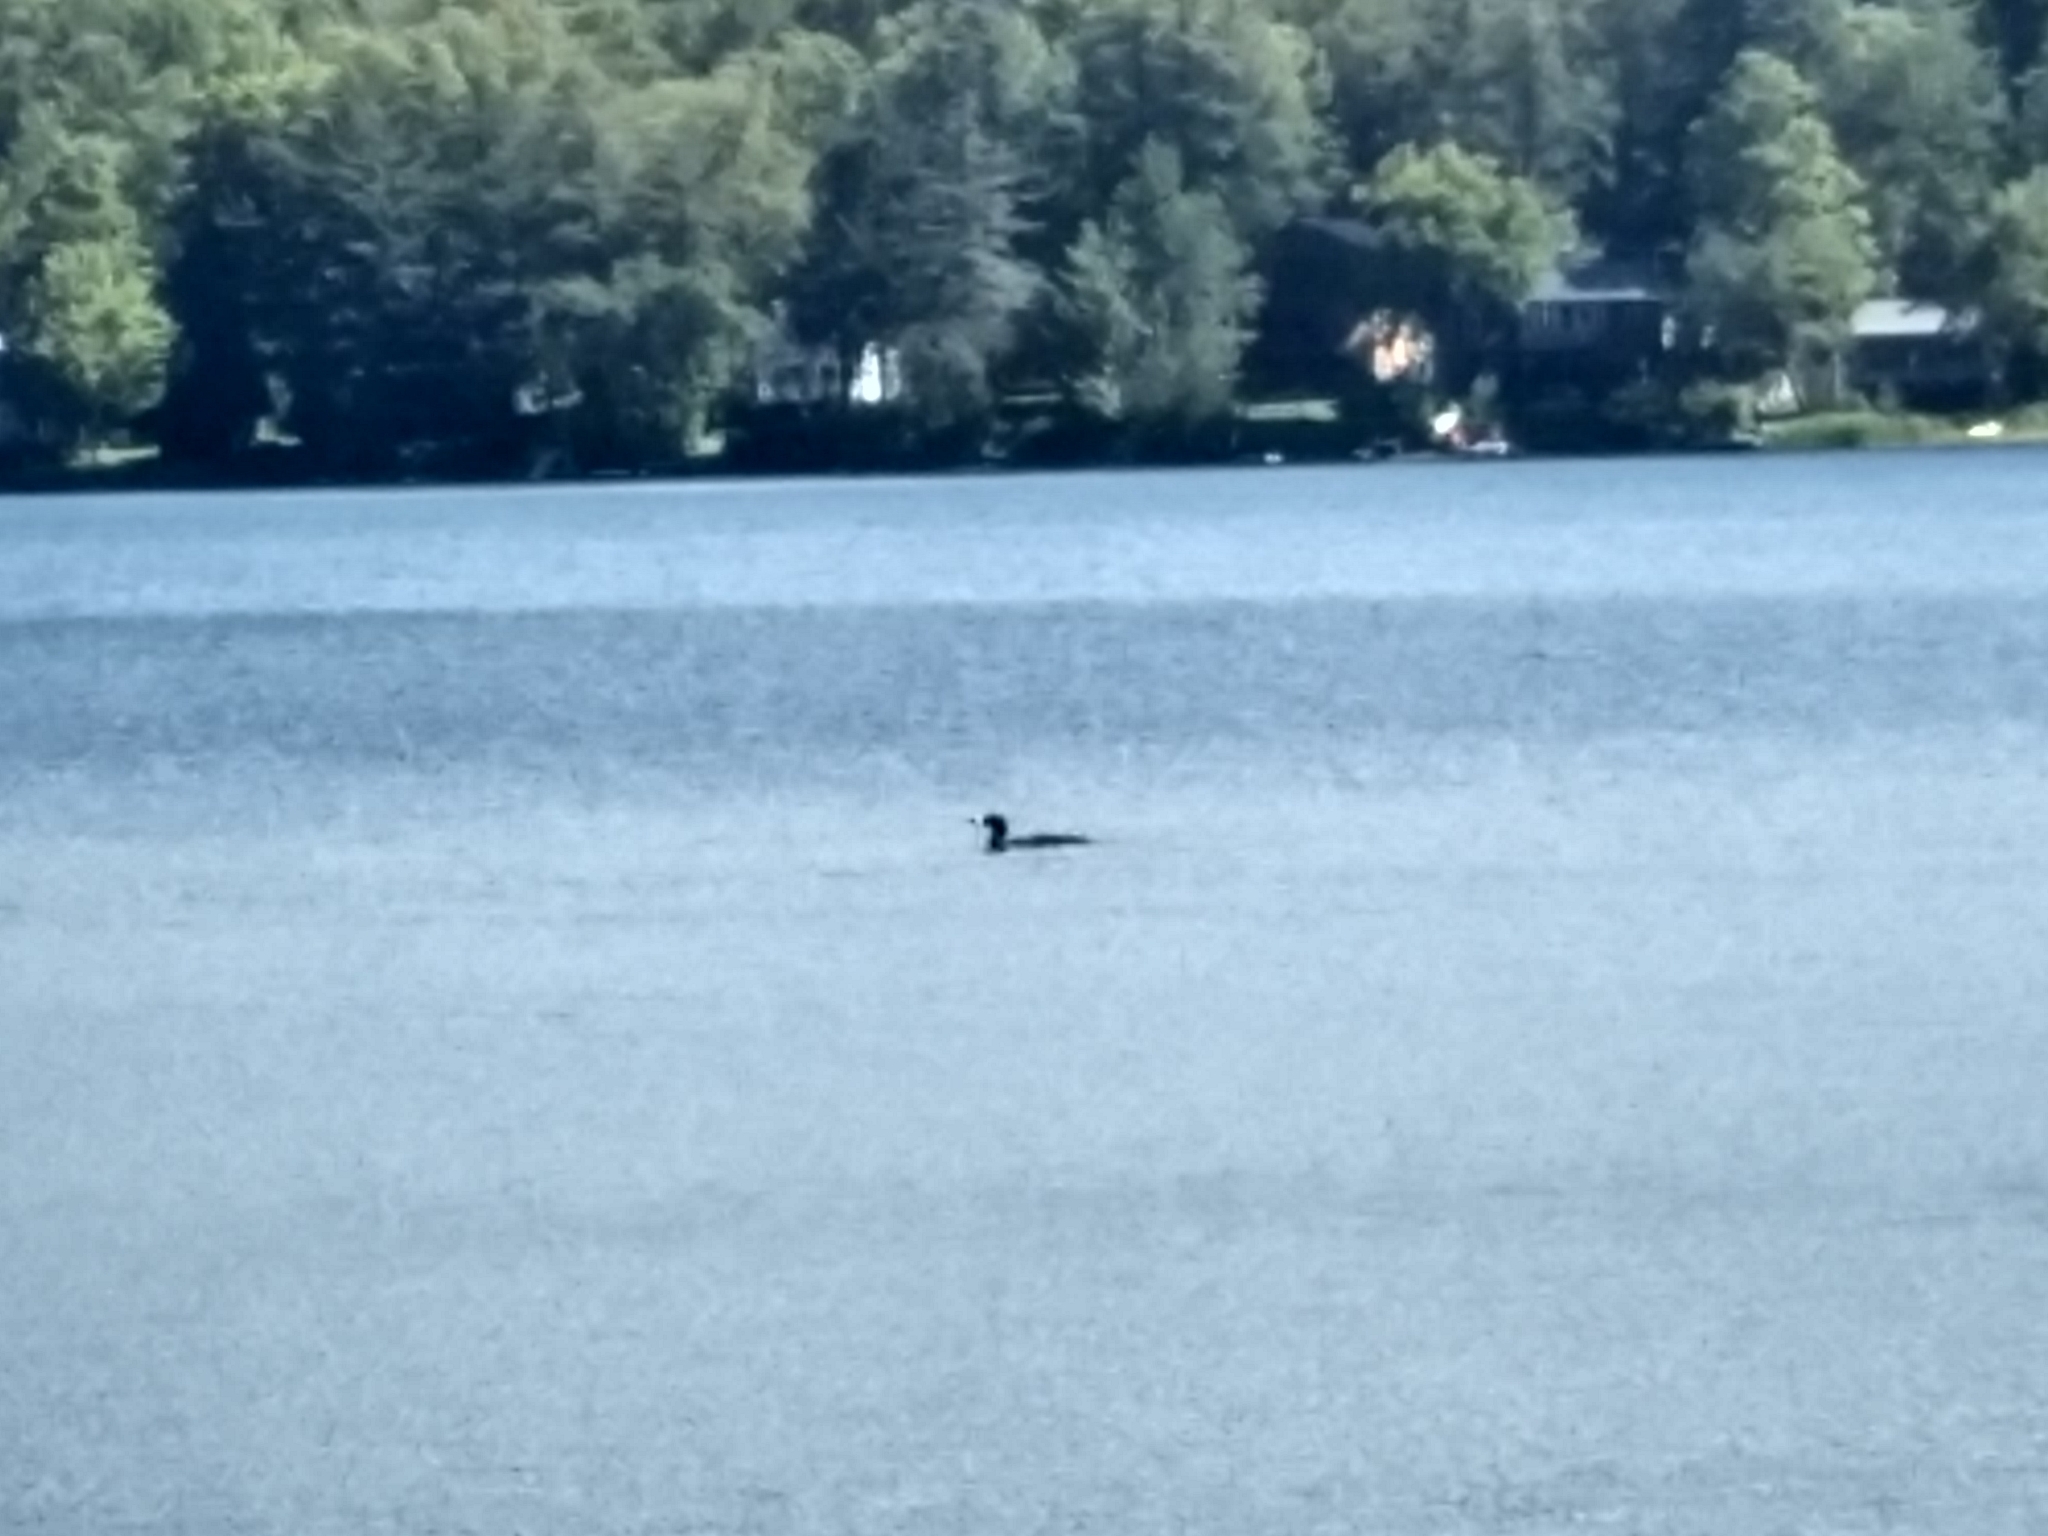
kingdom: Animalia
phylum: Chordata
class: Aves
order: Gaviiformes
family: Gaviidae
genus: Gavia
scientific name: Gavia immer
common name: Common loon
